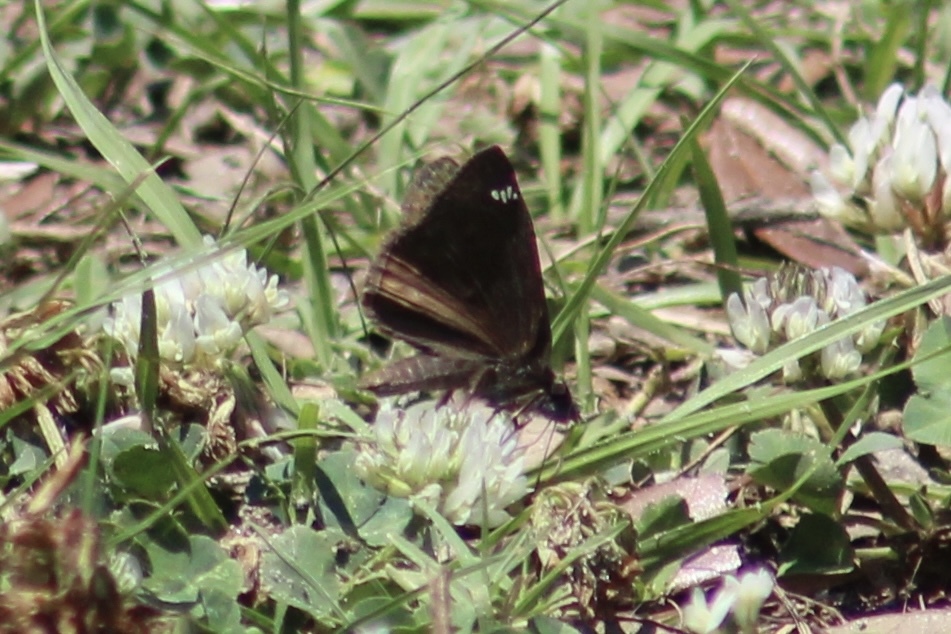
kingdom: Animalia
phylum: Arthropoda
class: Insecta
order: Lepidoptera
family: Hesperiidae
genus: Erynnis
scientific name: Erynnis zarucco
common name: Zarucco duskywing
